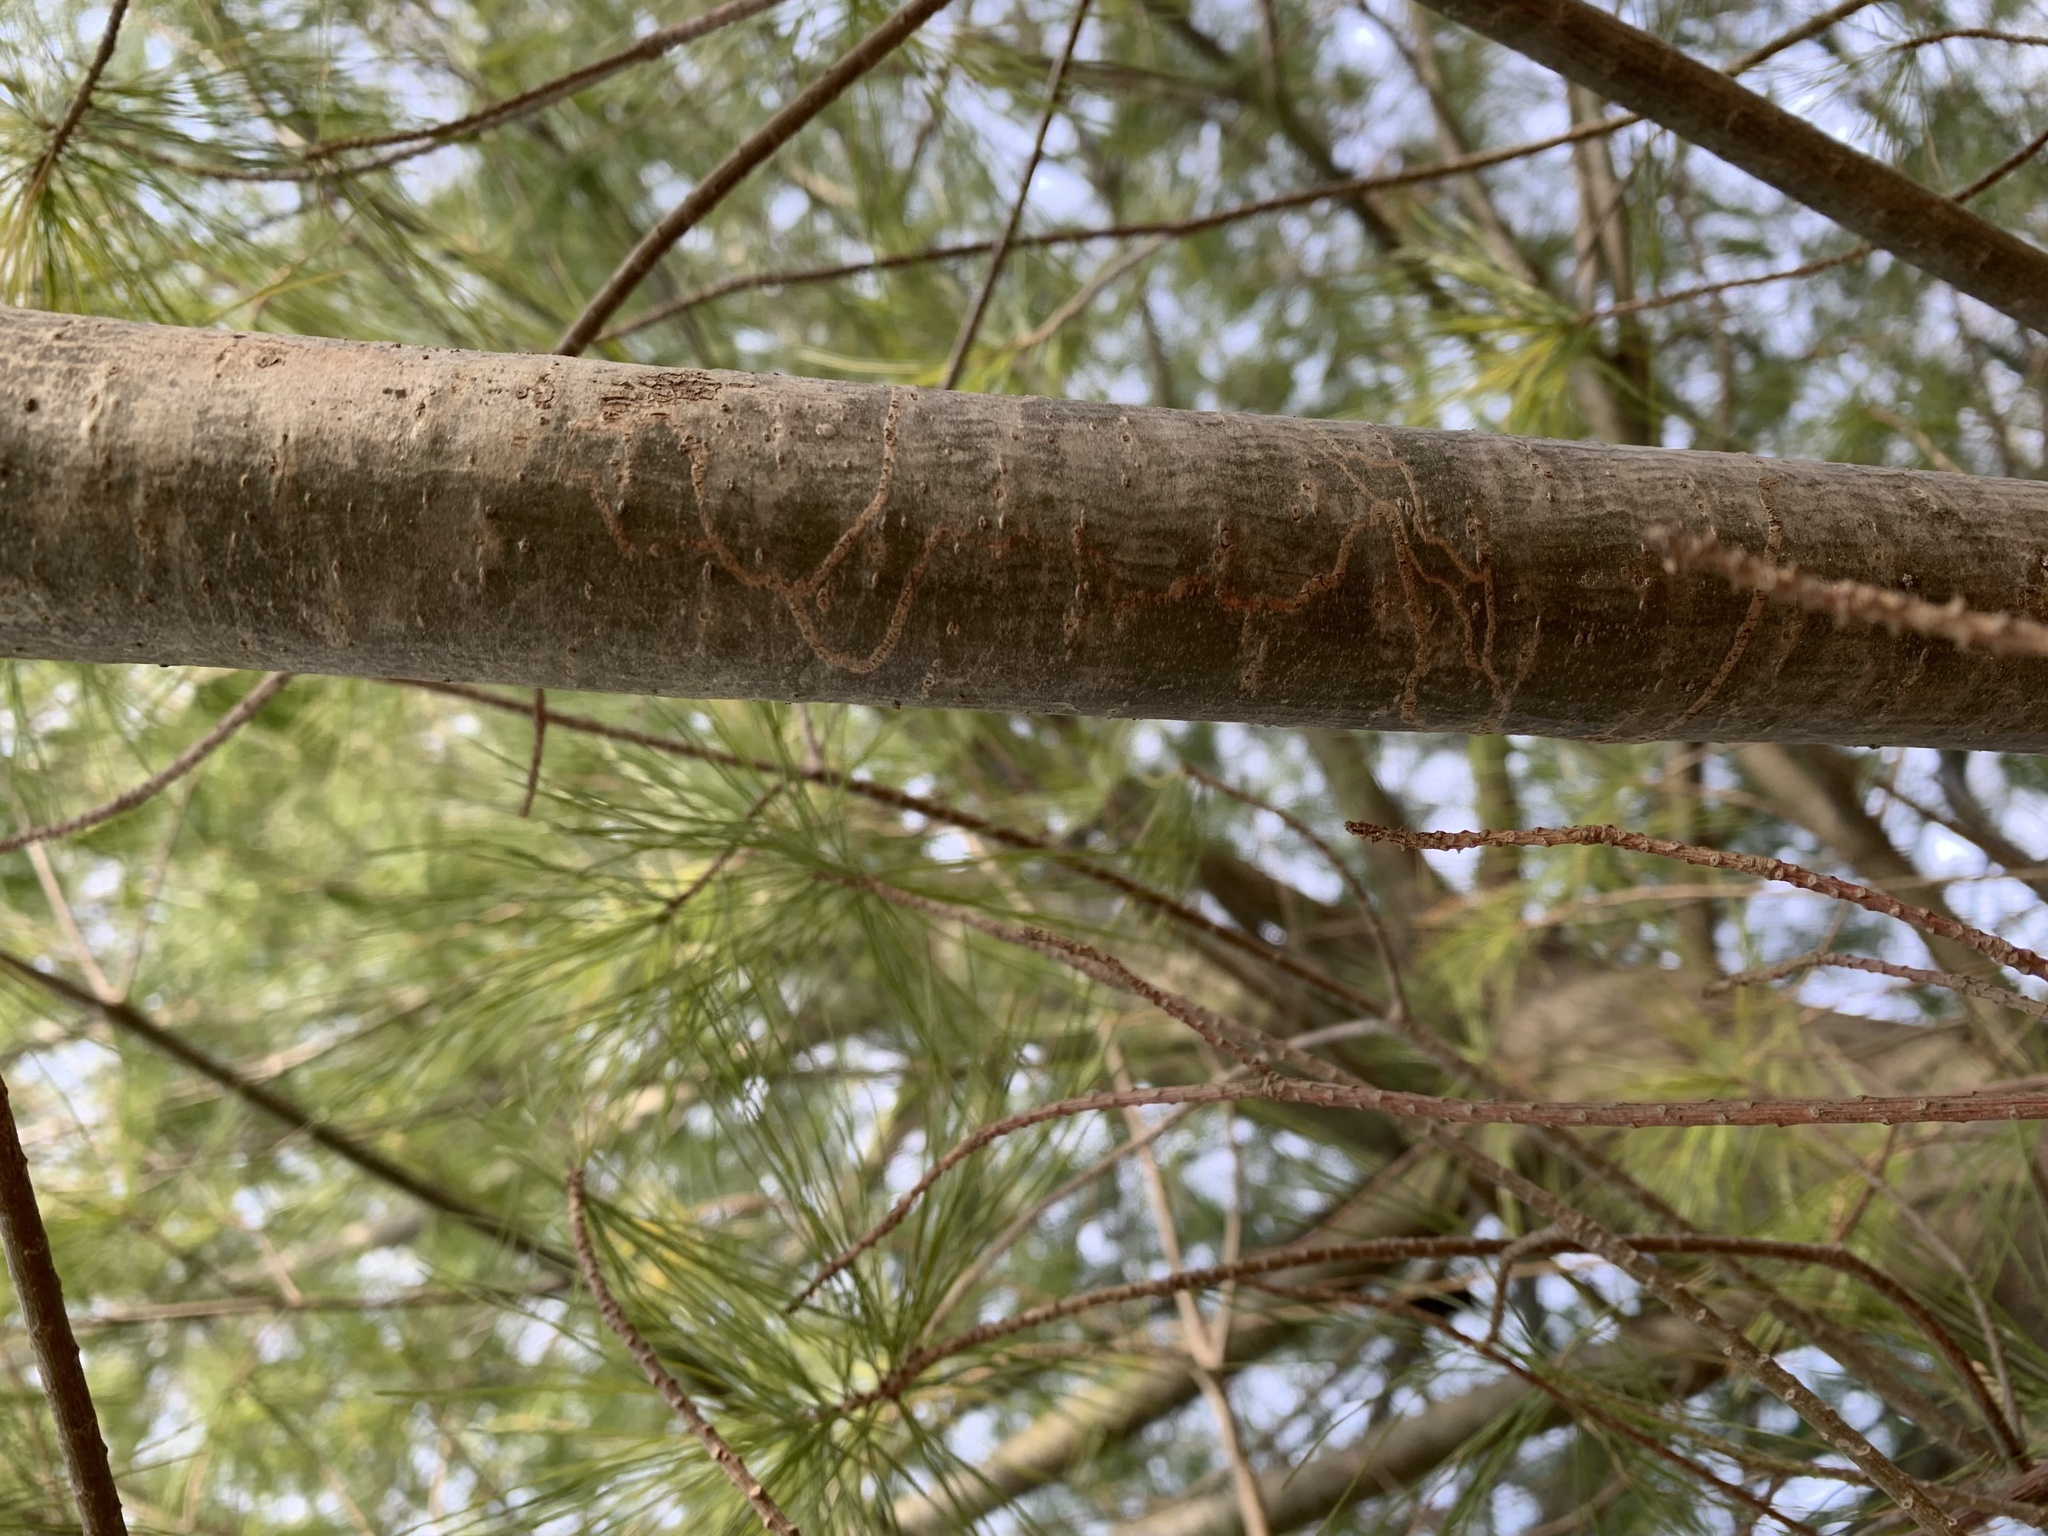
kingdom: Animalia
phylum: Arthropoda
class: Insecta
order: Lepidoptera
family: Gracillariidae
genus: Marmara
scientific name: Marmara fasciella
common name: White pine barkminer moth
